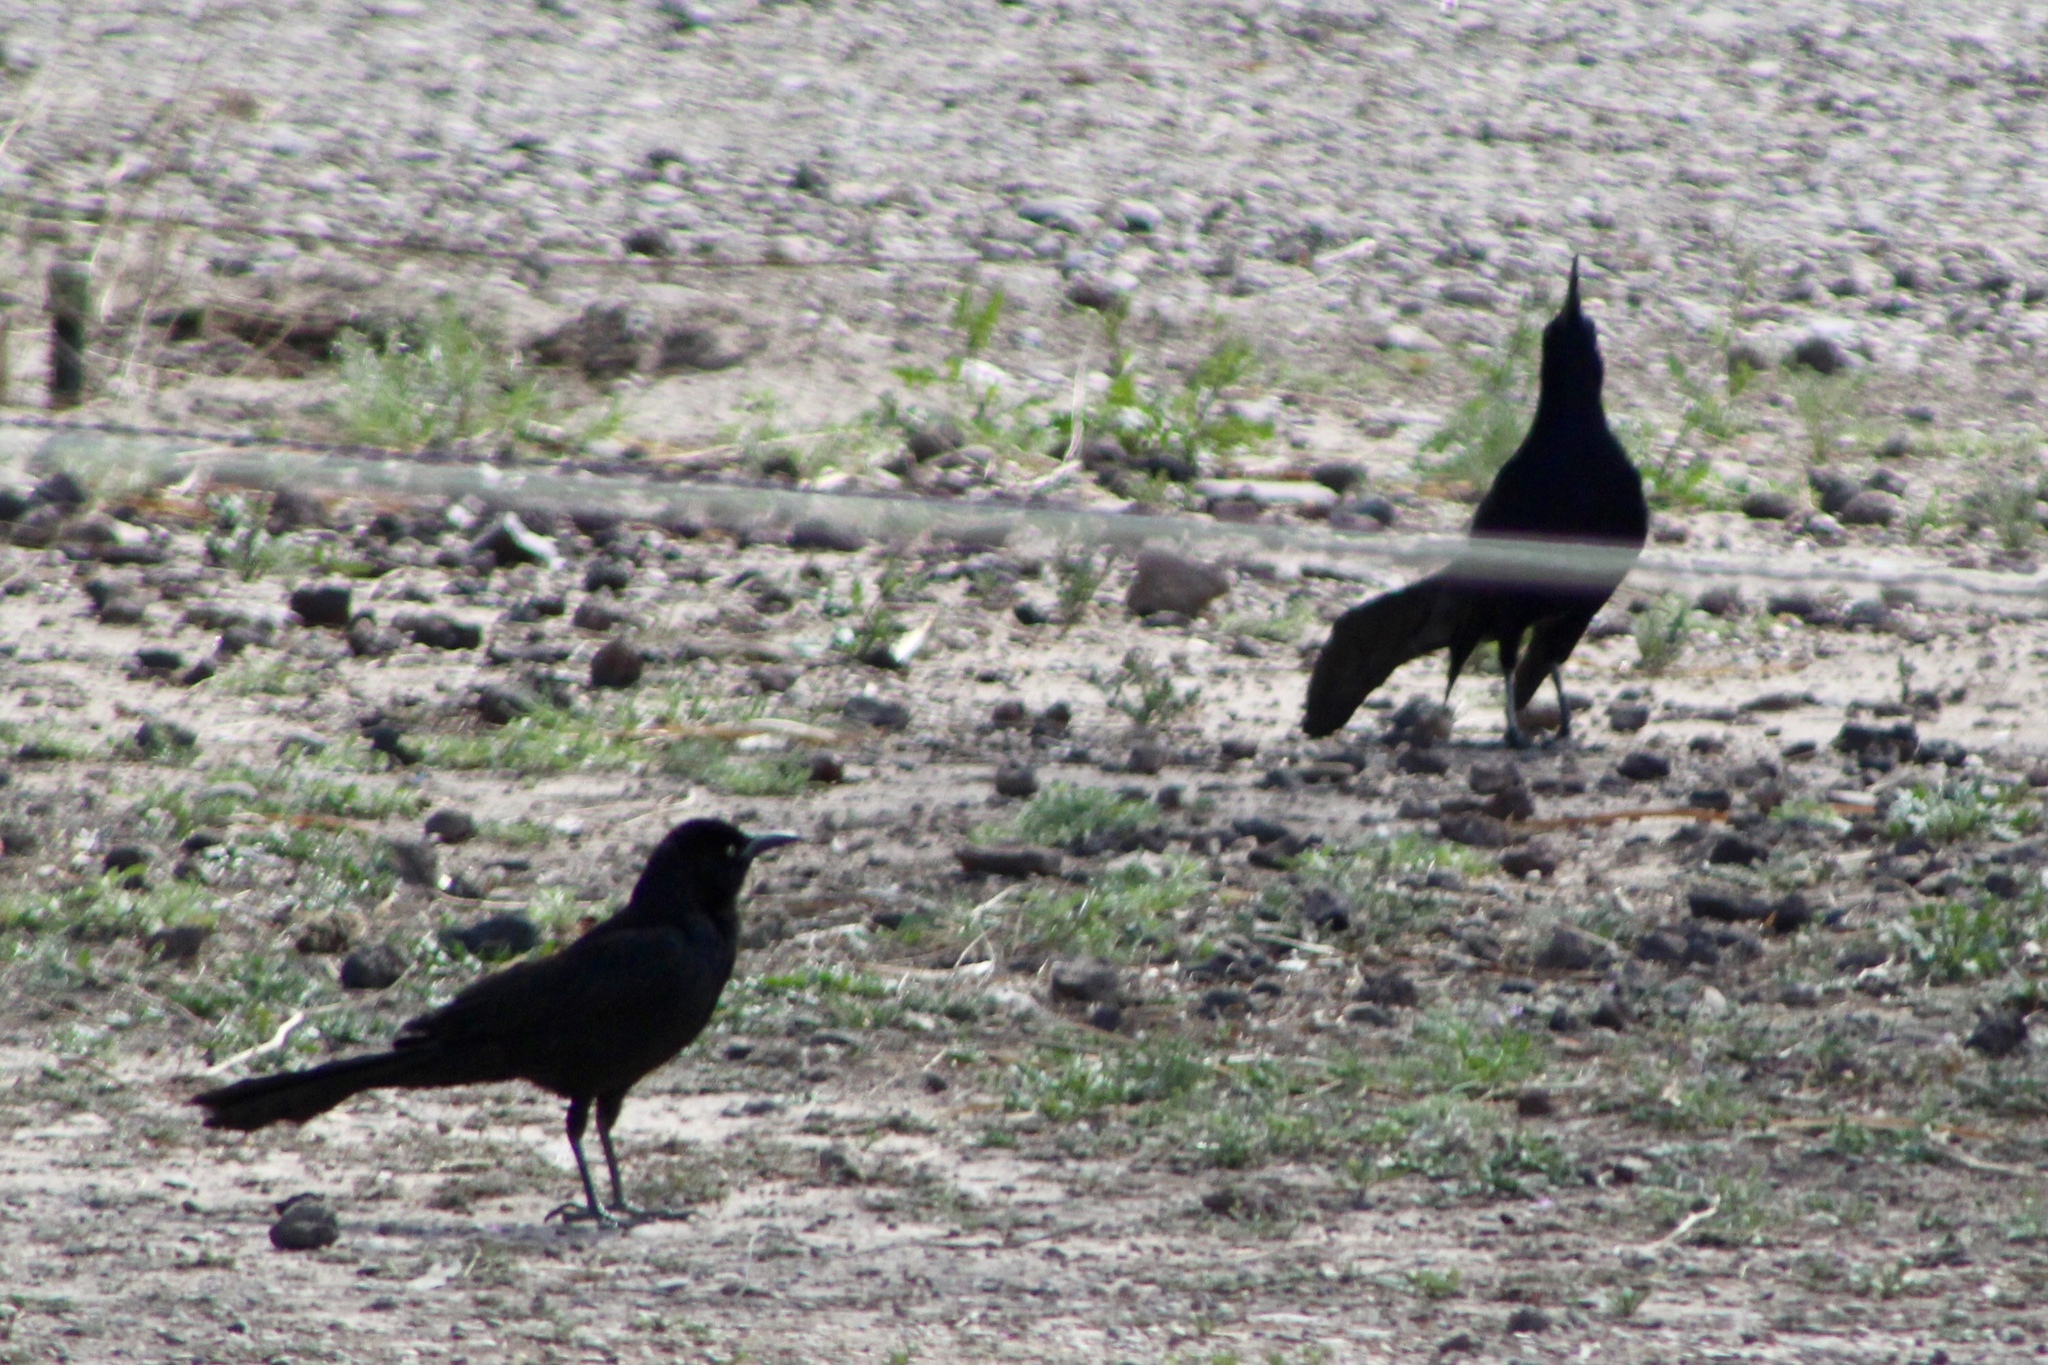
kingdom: Animalia
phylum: Chordata
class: Aves
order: Passeriformes
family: Icteridae
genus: Quiscalus
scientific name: Quiscalus mexicanus
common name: Great-tailed grackle
